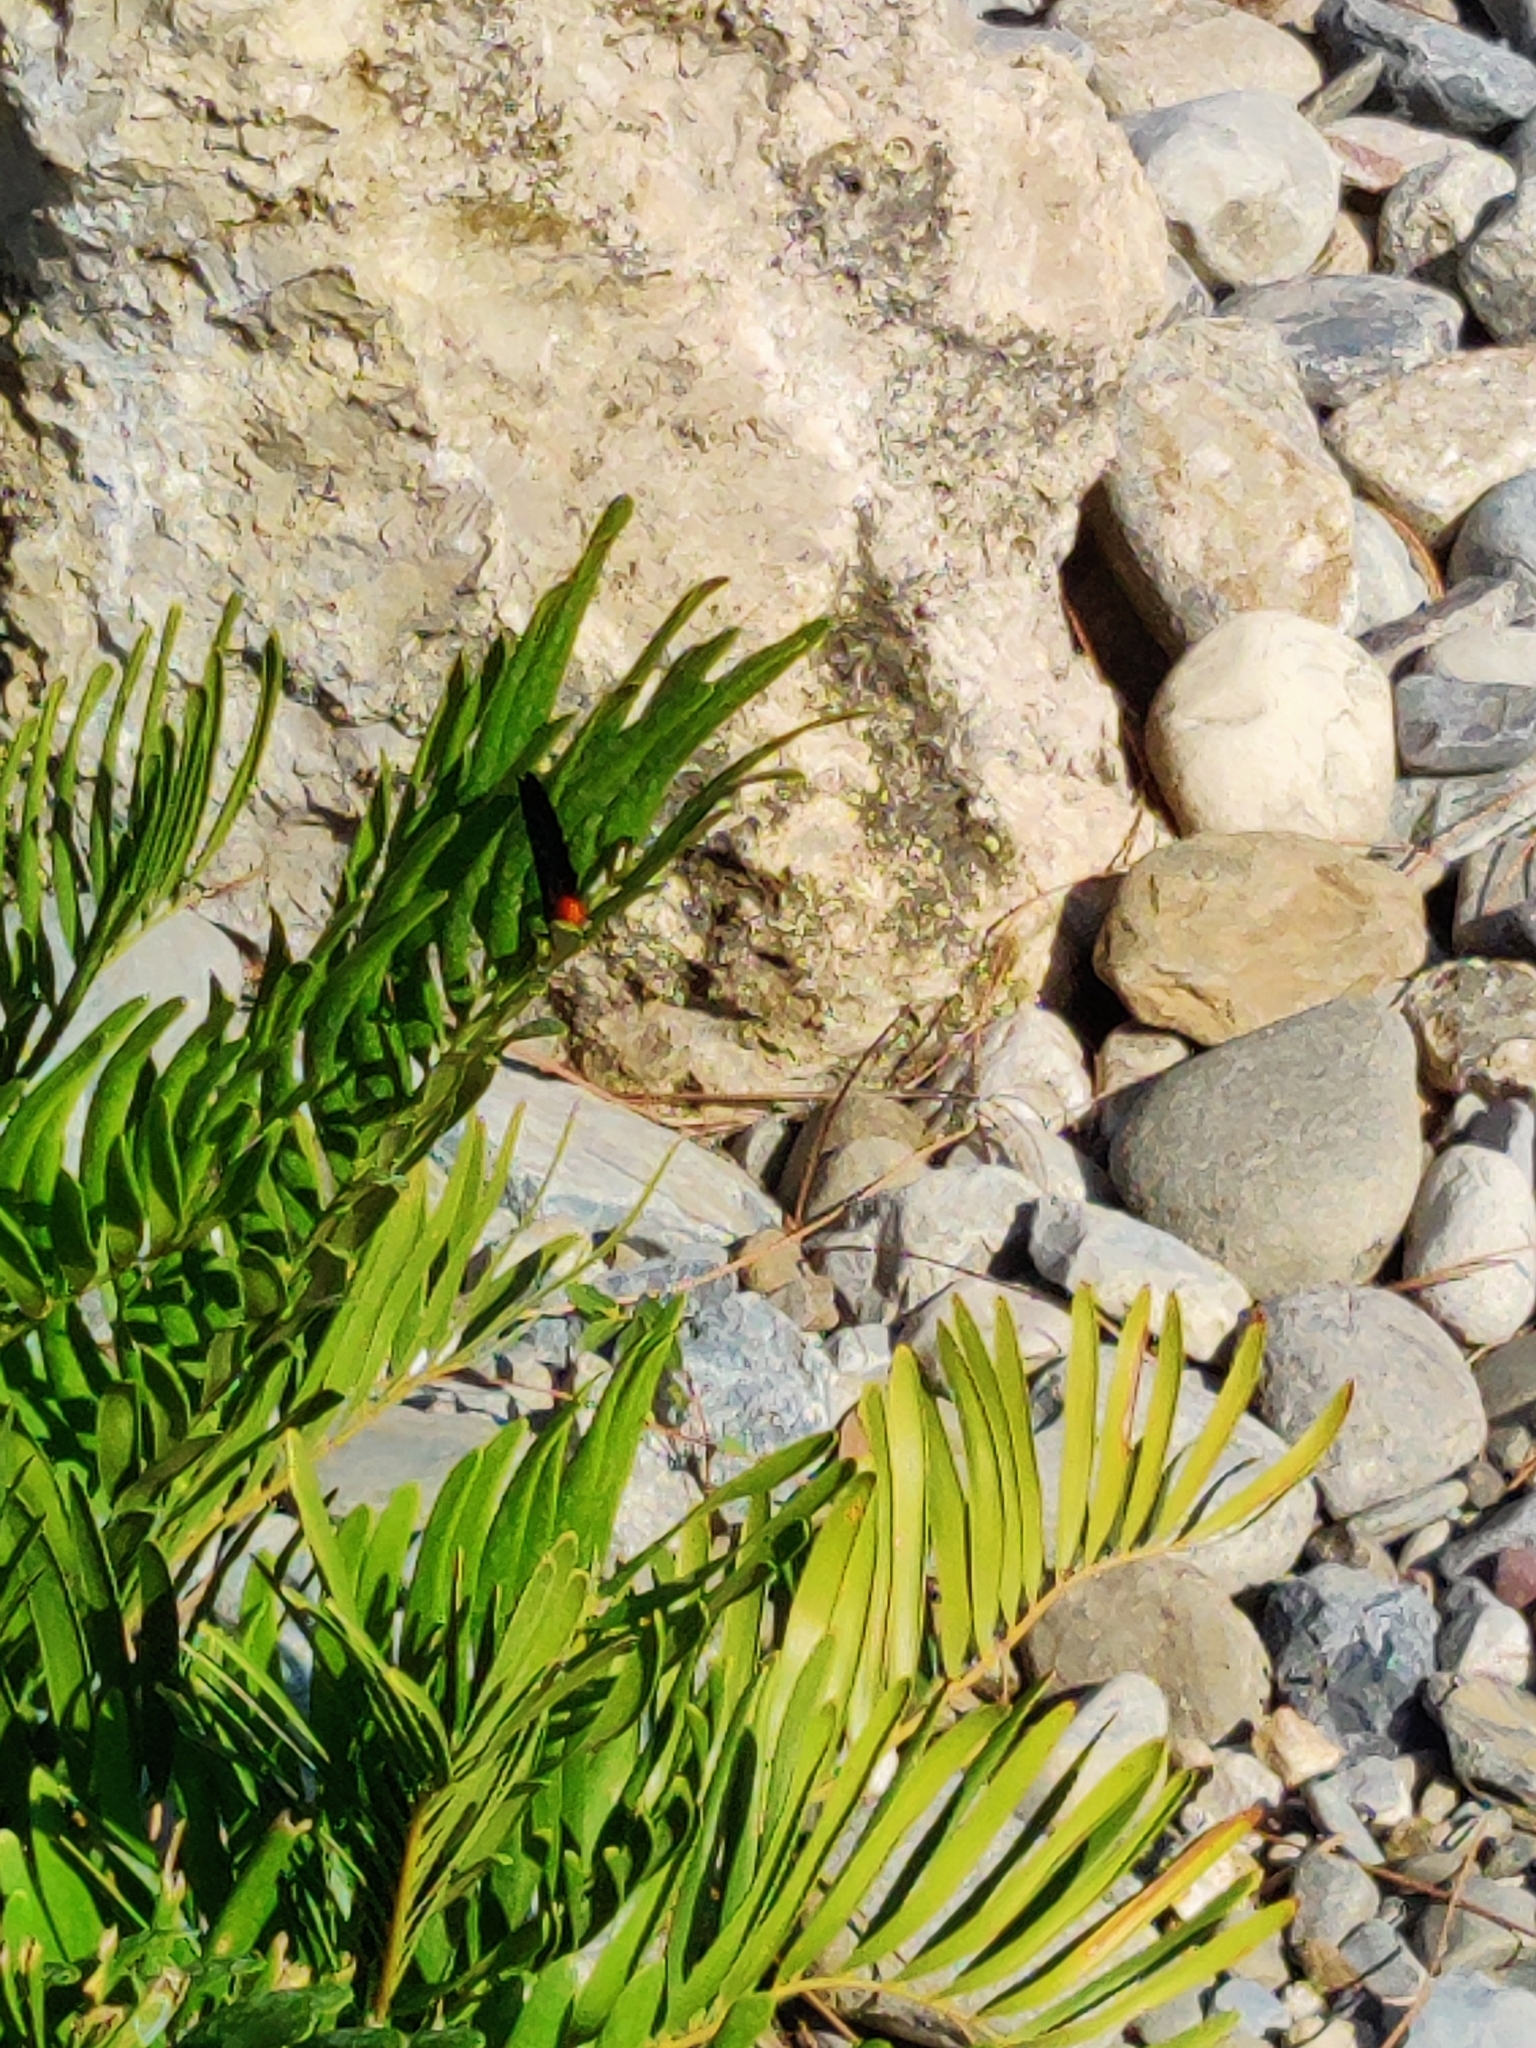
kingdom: Animalia
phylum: Arthropoda
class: Insecta
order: Lepidoptera
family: Lycaenidae
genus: Eumaeus
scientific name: Eumaeus atala
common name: Atala
